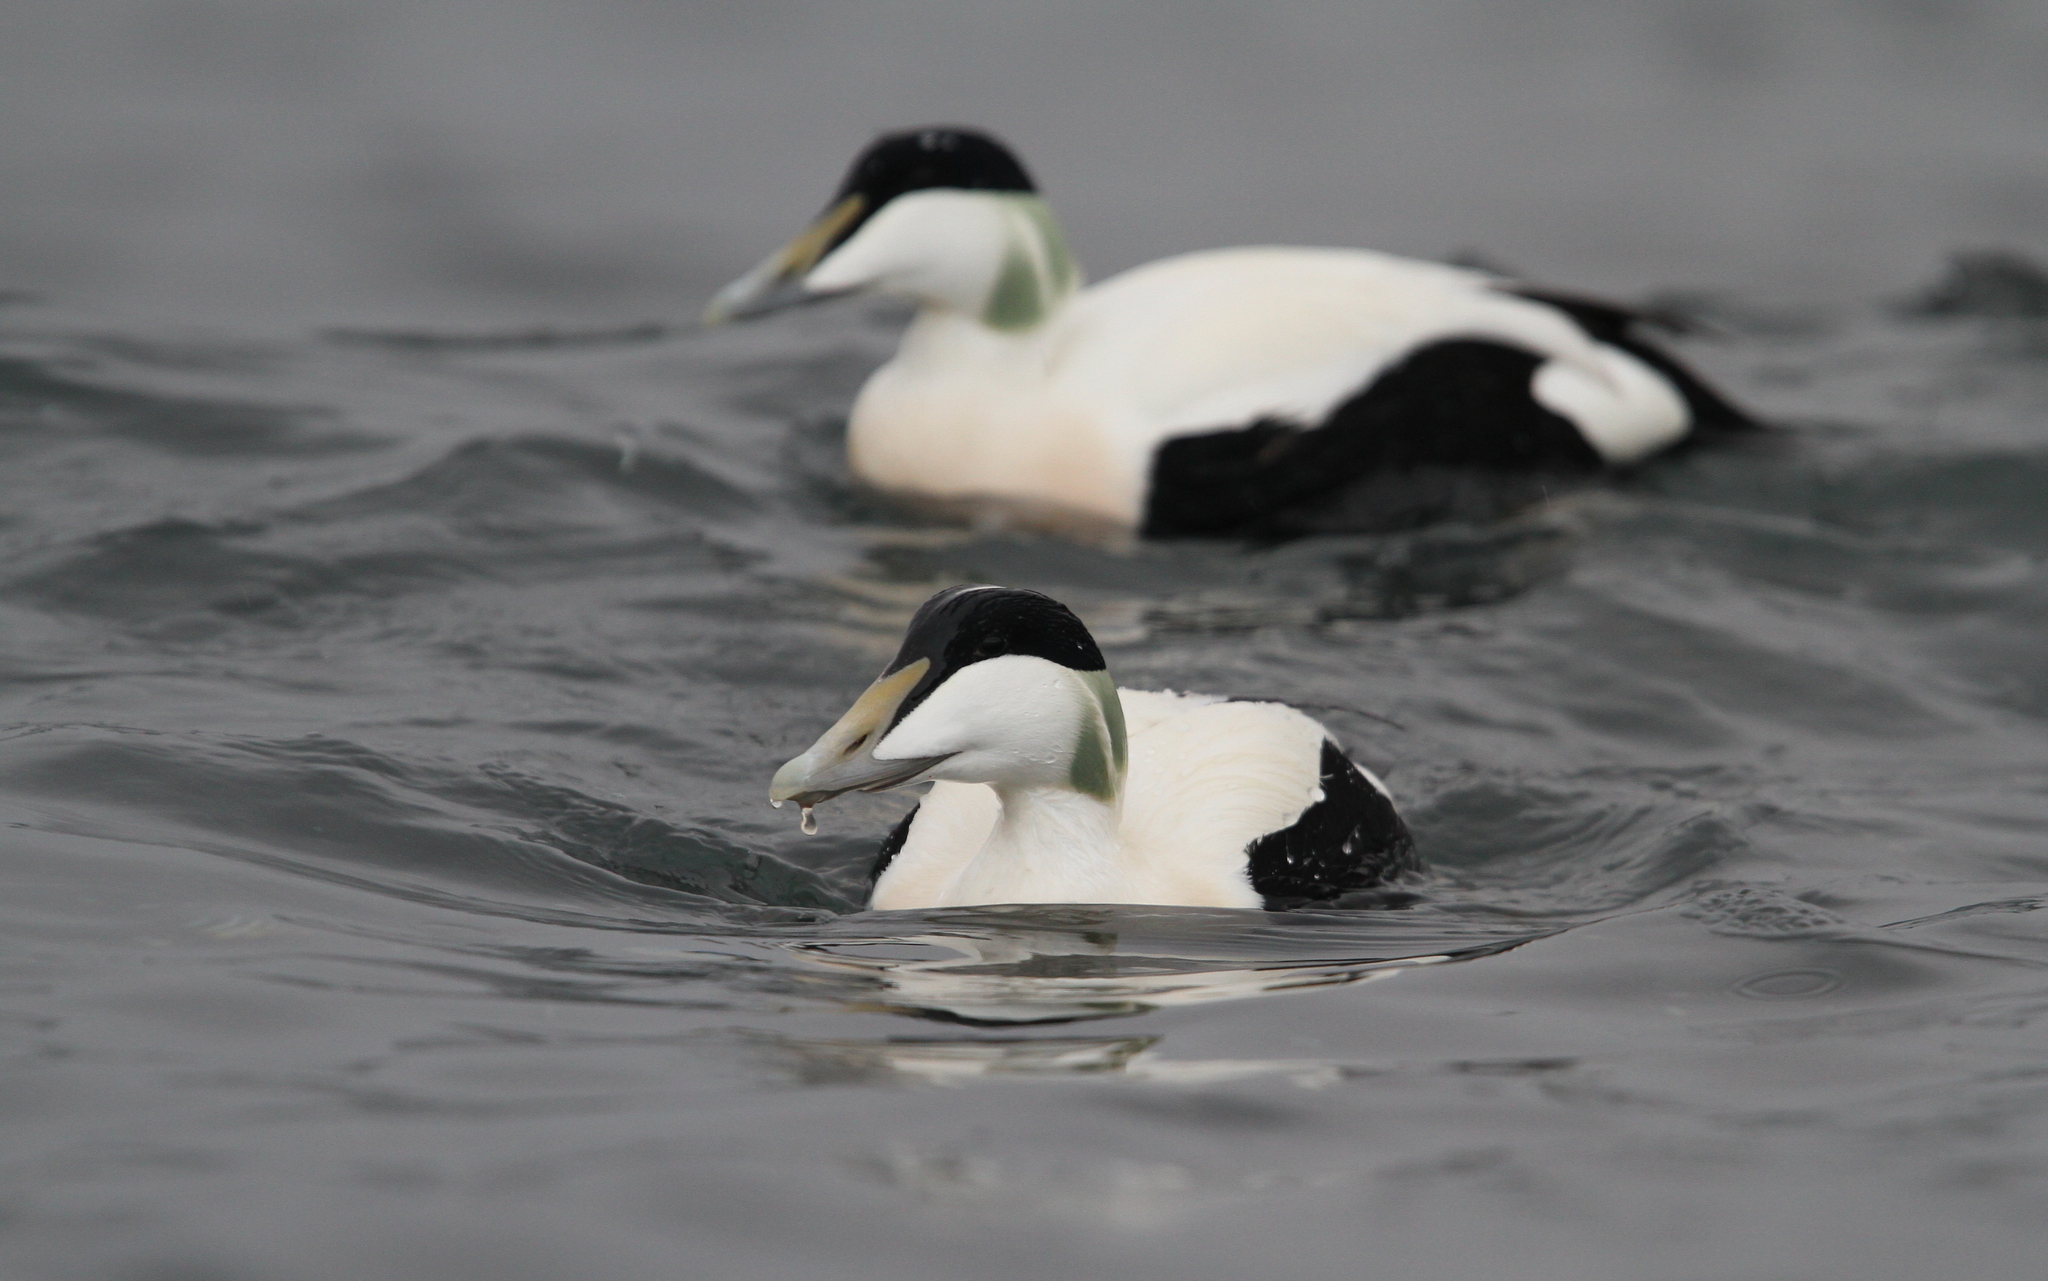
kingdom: Animalia
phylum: Chordata
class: Aves
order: Anseriformes
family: Anatidae
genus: Somateria
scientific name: Somateria mollissima
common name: Common eider
